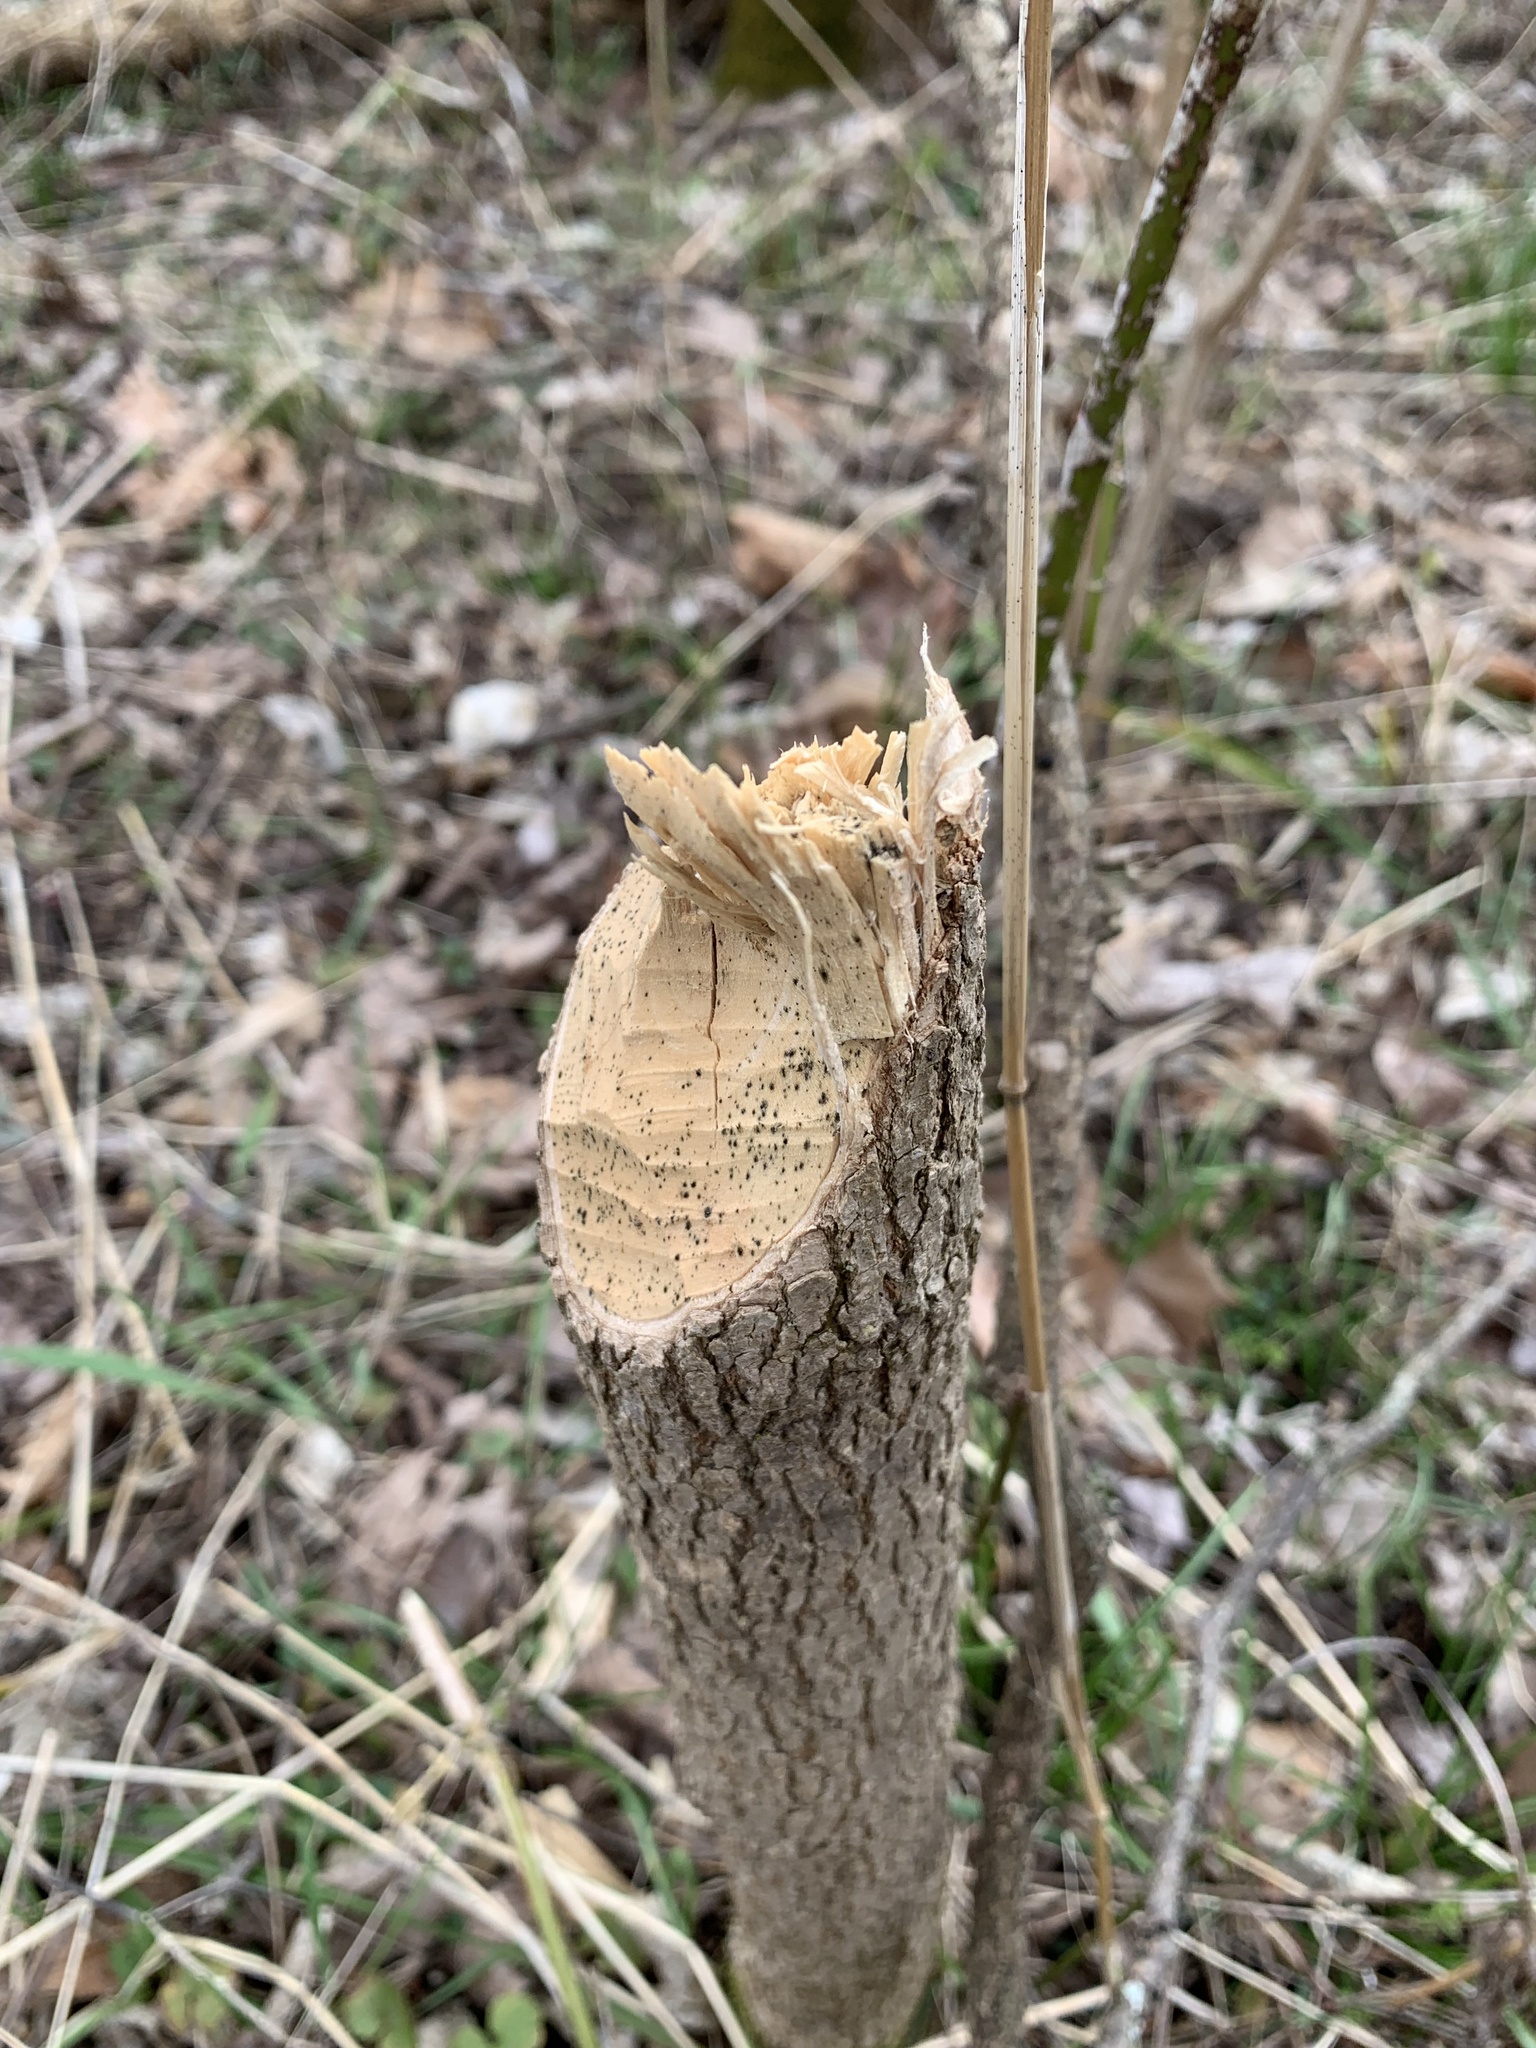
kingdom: Animalia
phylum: Chordata
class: Mammalia
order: Rodentia
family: Castoridae
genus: Castor
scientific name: Castor canadensis
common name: American beaver
